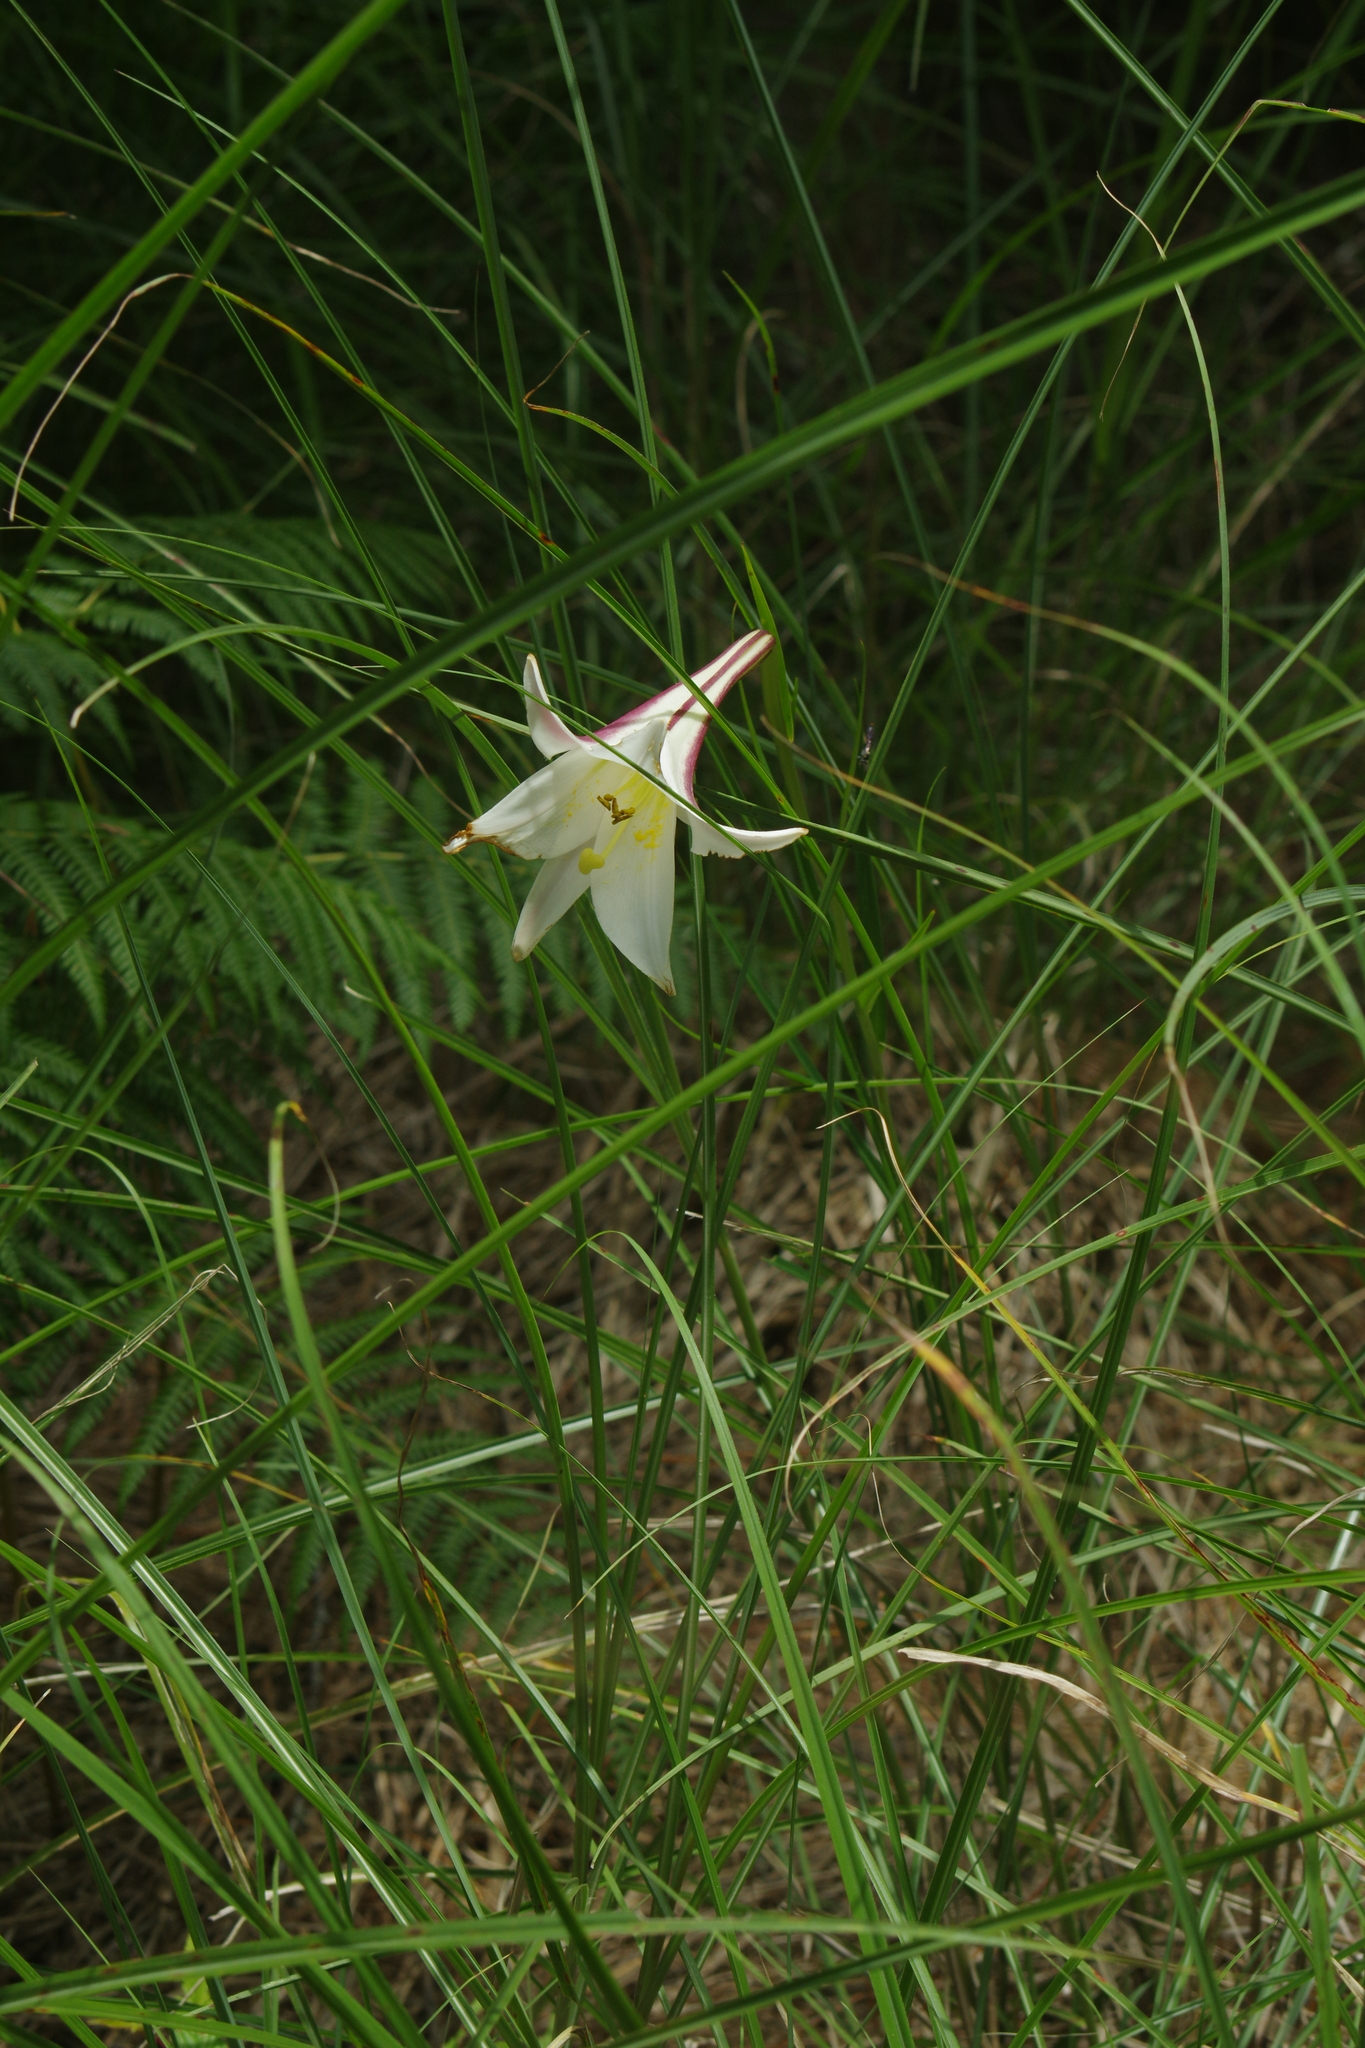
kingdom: Plantae
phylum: Tracheophyta
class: Liliopsida
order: Liliales
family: Liliaceae
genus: Lilium
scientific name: Lilium formosanum
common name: Formosa lily
